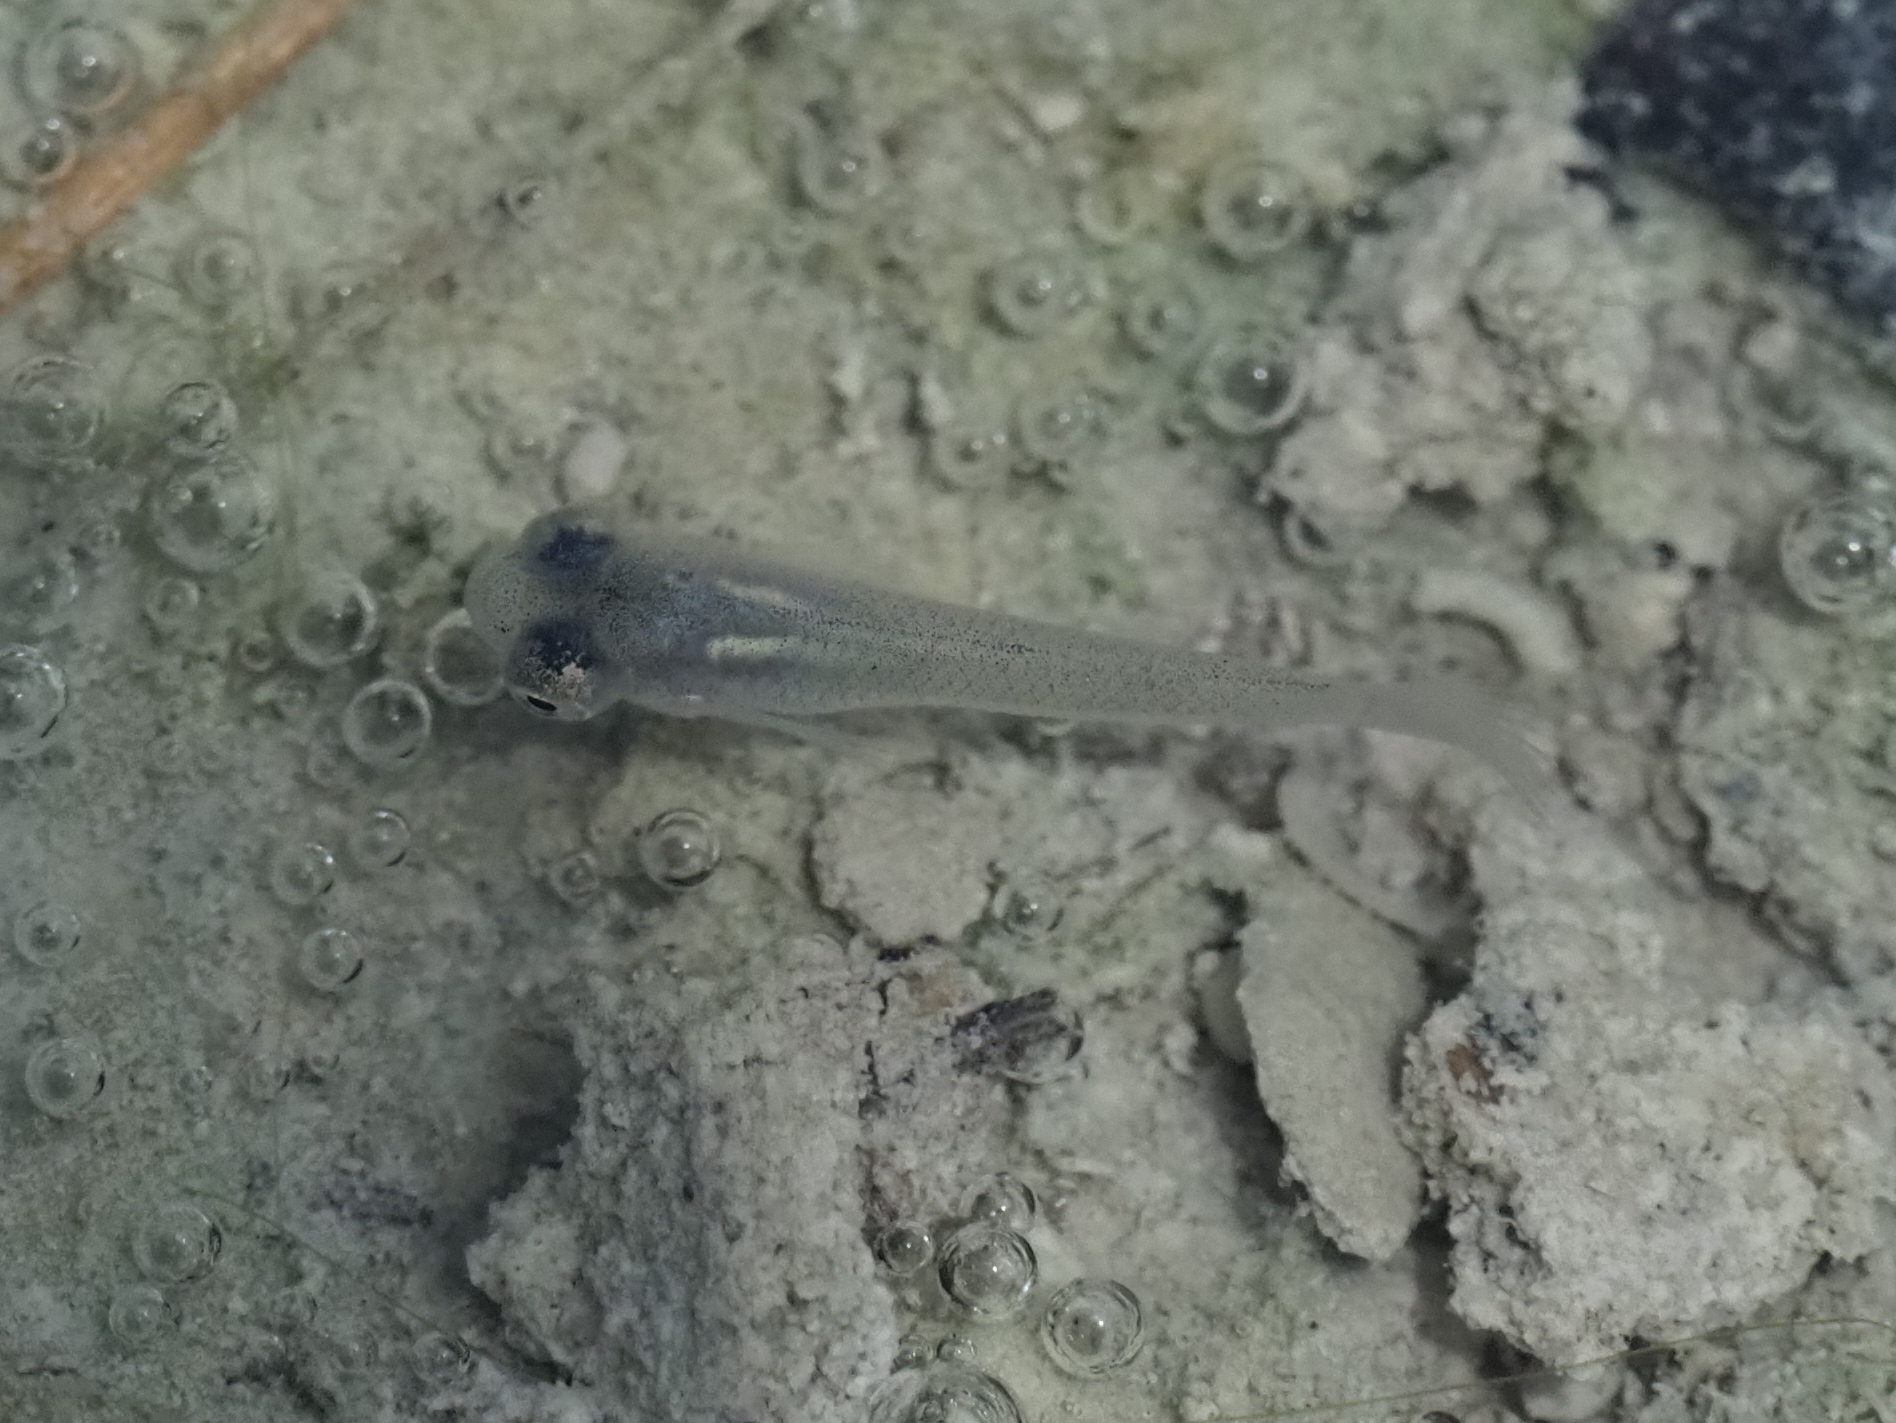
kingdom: Animalia
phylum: Chordata
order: Cyprinodontiformes
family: Poeciliidae
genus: Gambusia
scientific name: Gambusia affinis
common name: Mosquitofish
